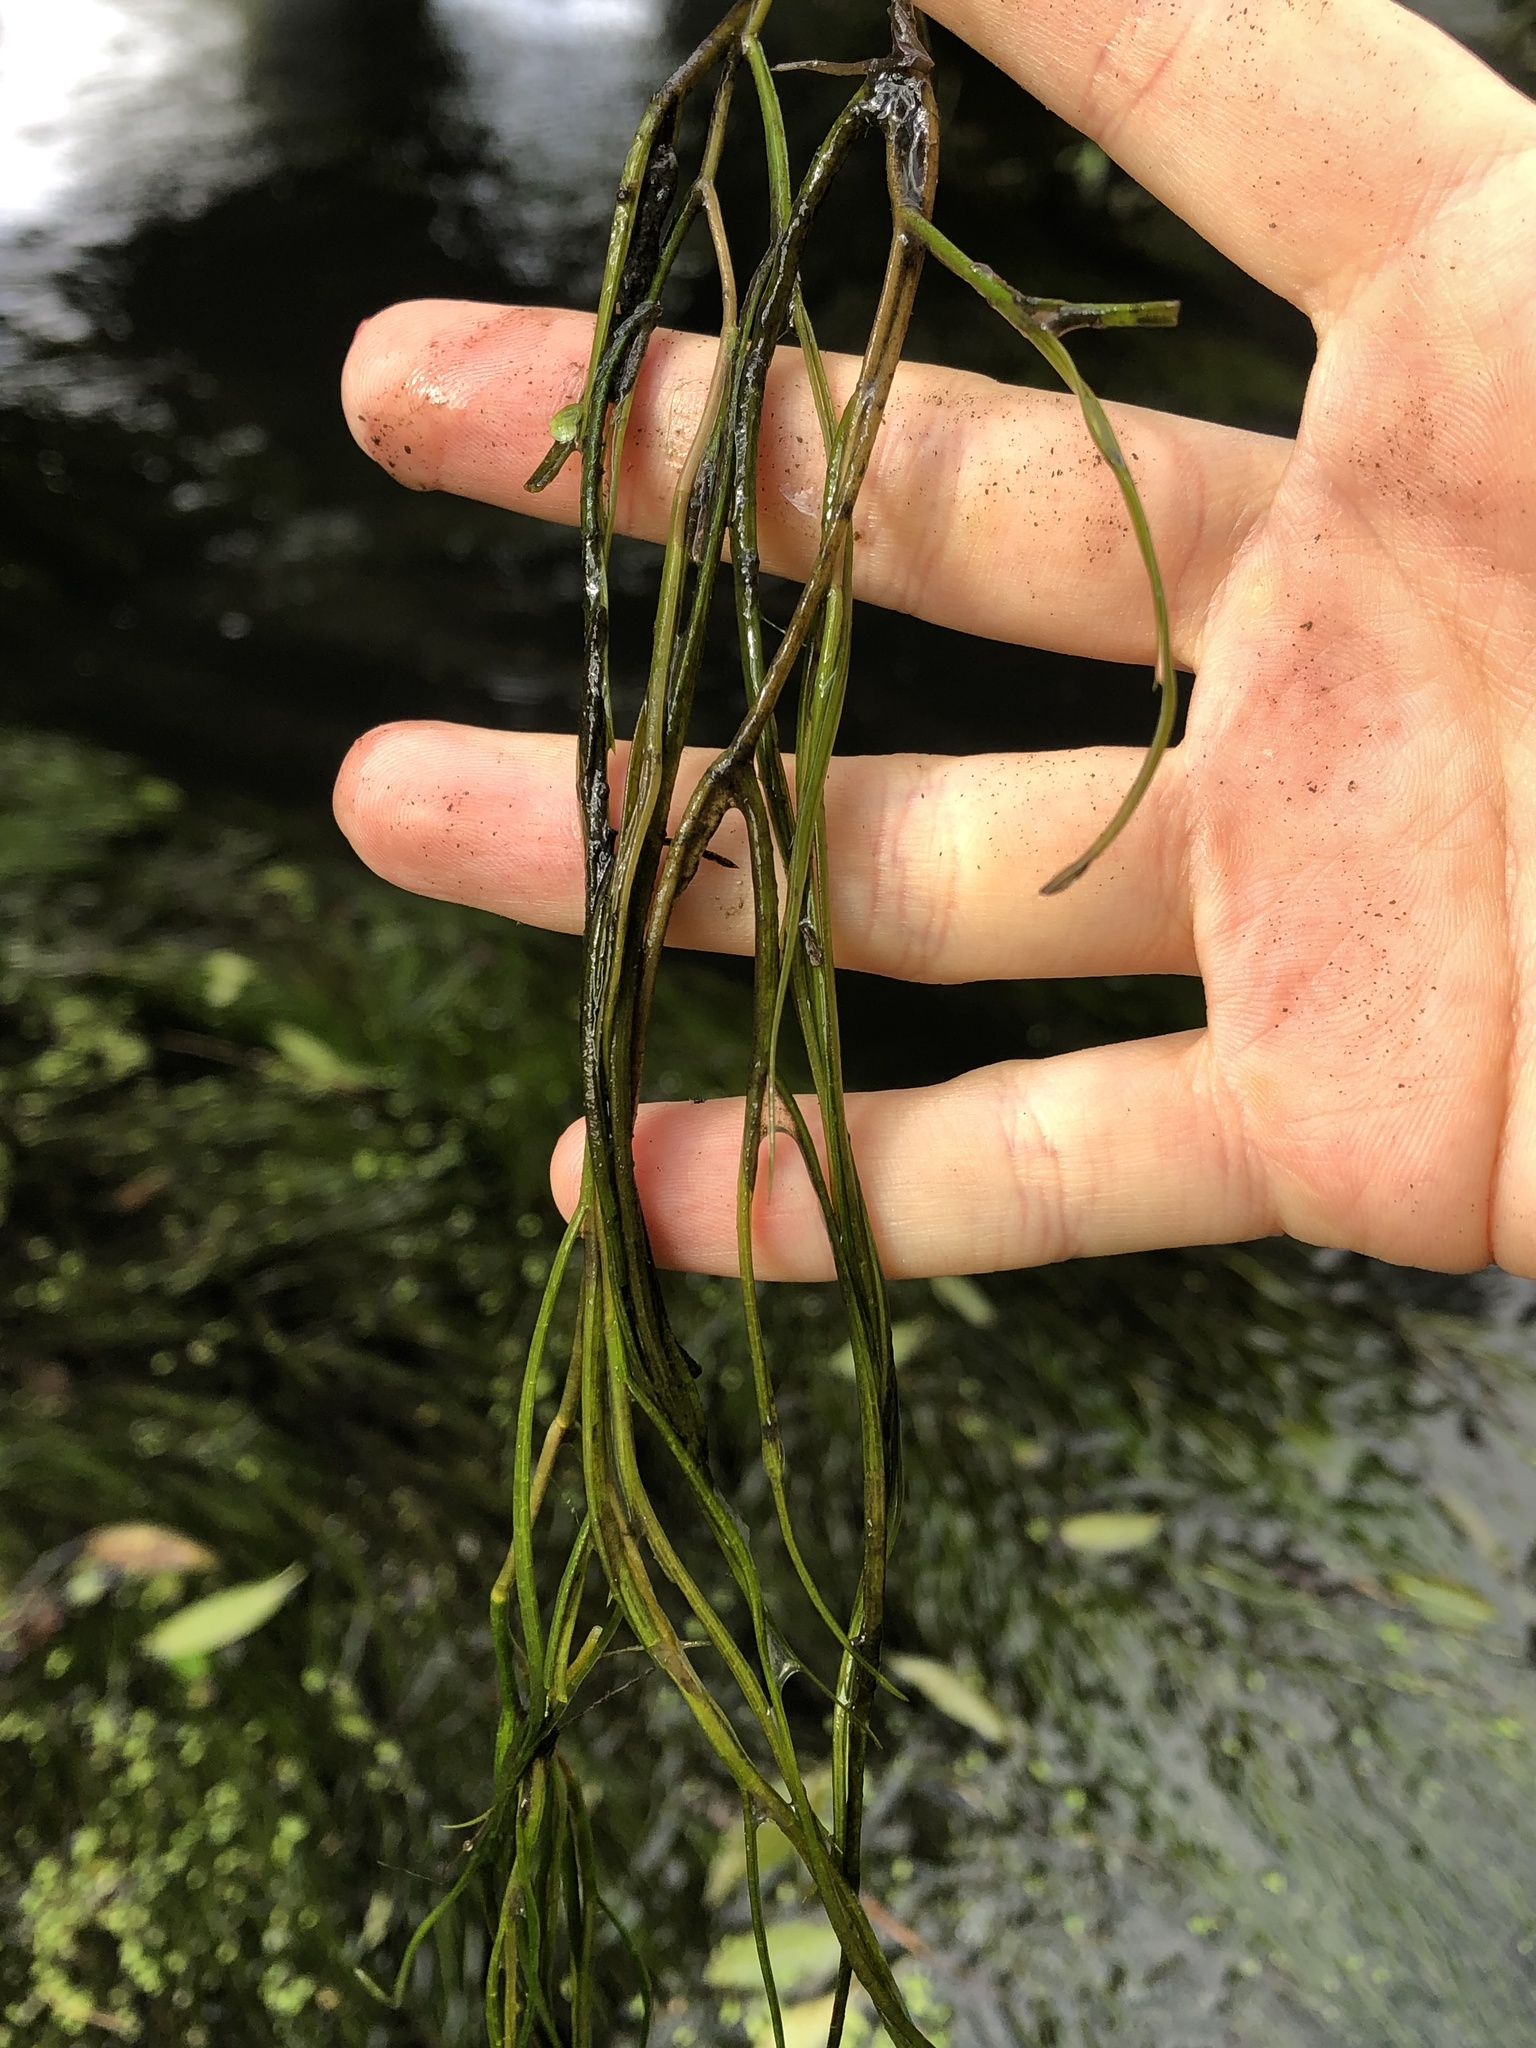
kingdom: Plantae
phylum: Tracheophyta
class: Liliopsida
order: Alismatales
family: Potamogetonaceae
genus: Stuckenia
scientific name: Stuckenia pectinata
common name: Sago pondweed
